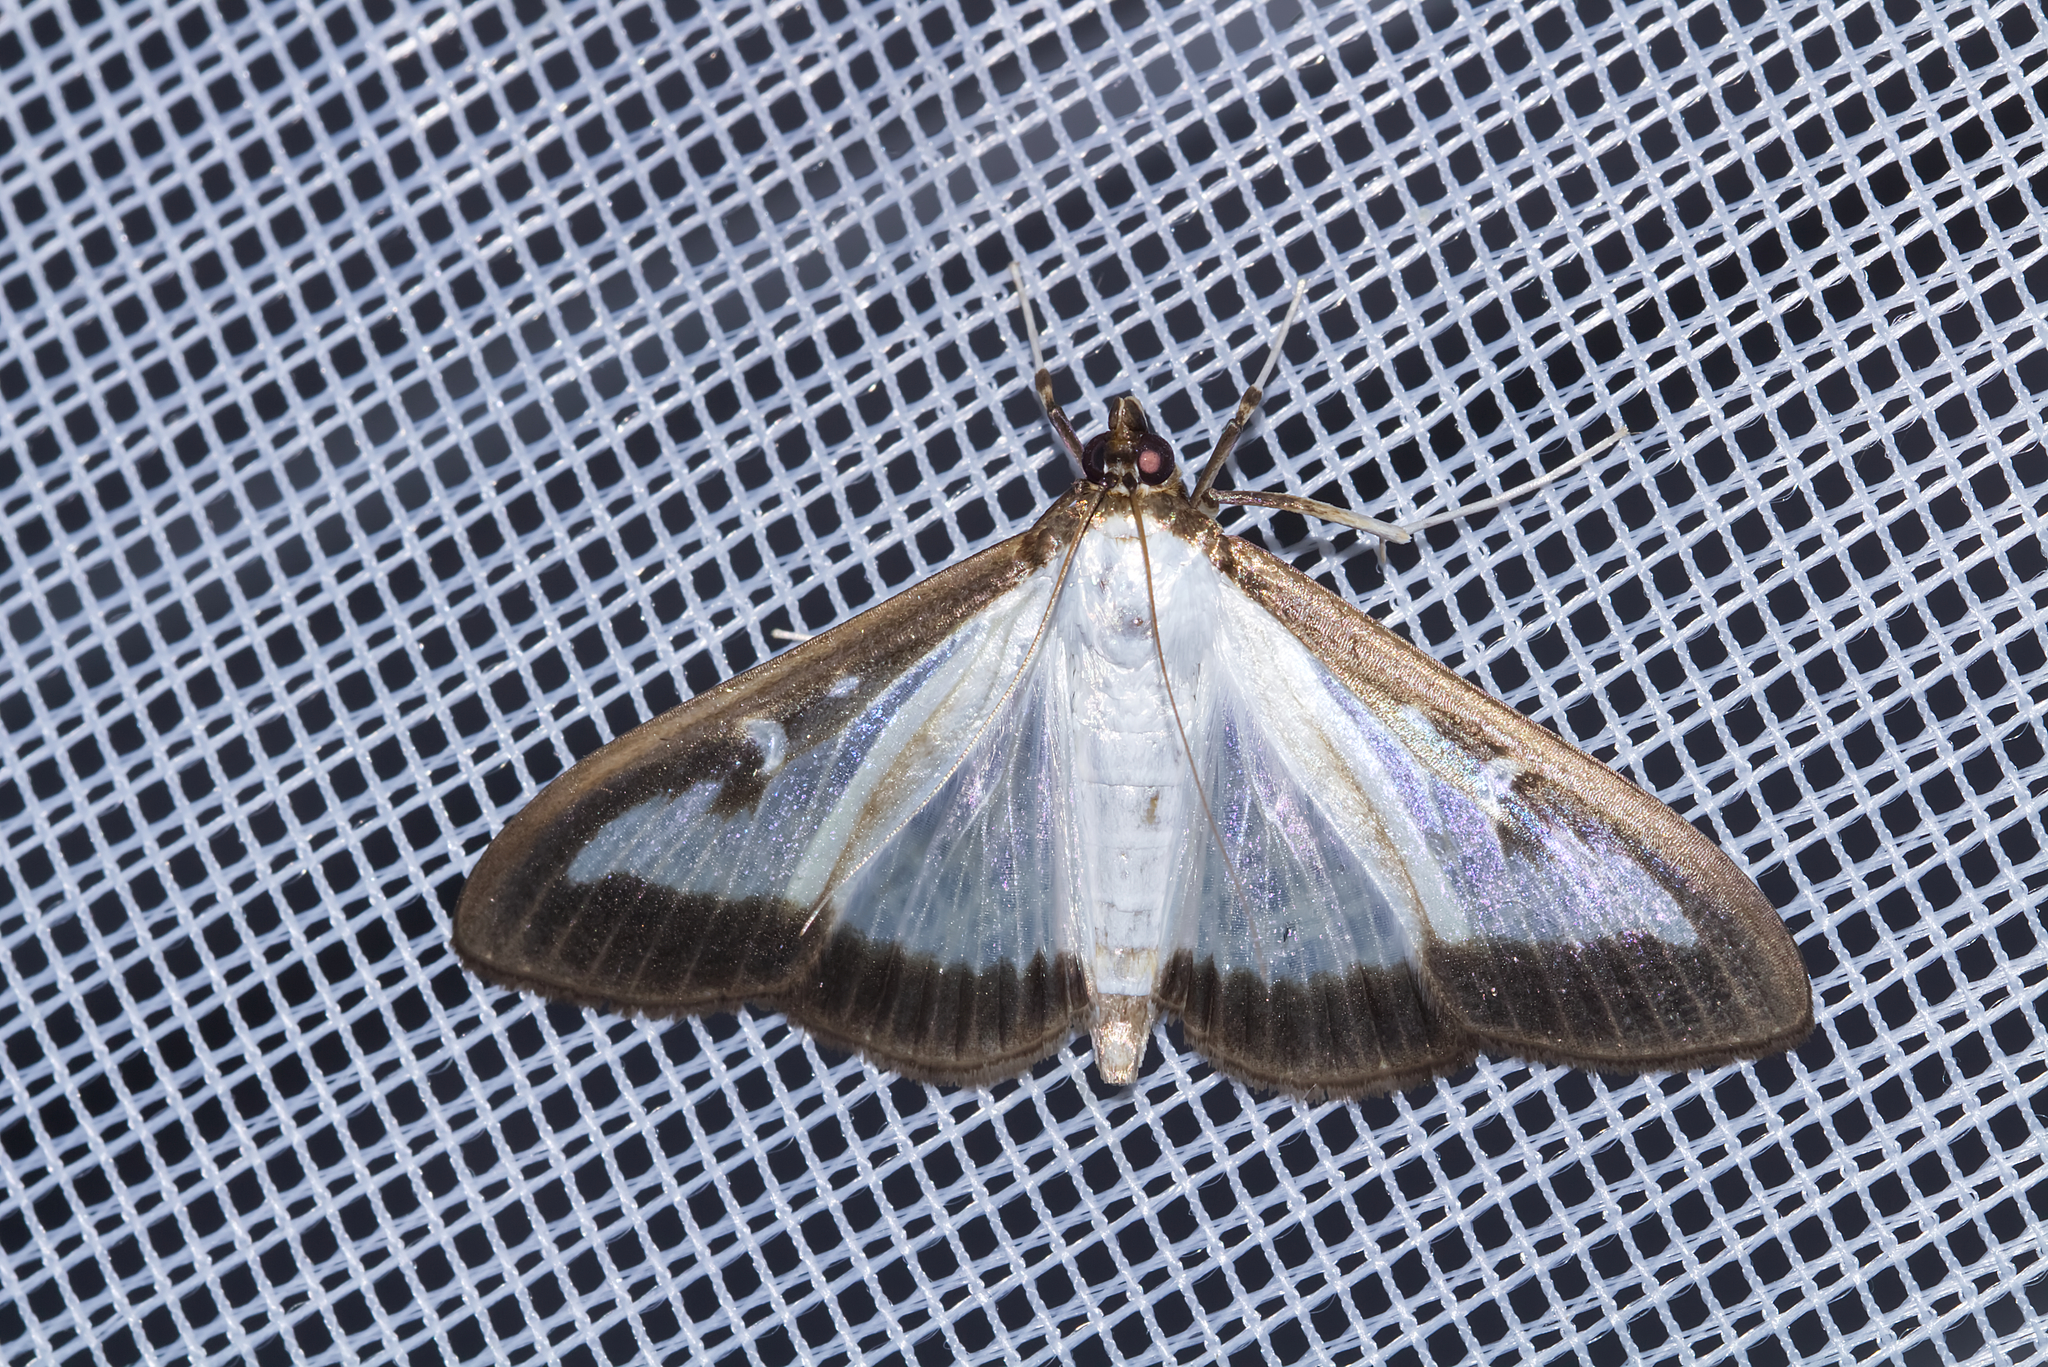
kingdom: Animalia
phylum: Arthropoda
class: Insecta
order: Lepidoptera
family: Crambidae
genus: Cydalima
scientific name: Cydalima perspectalis
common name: Box tree moth
